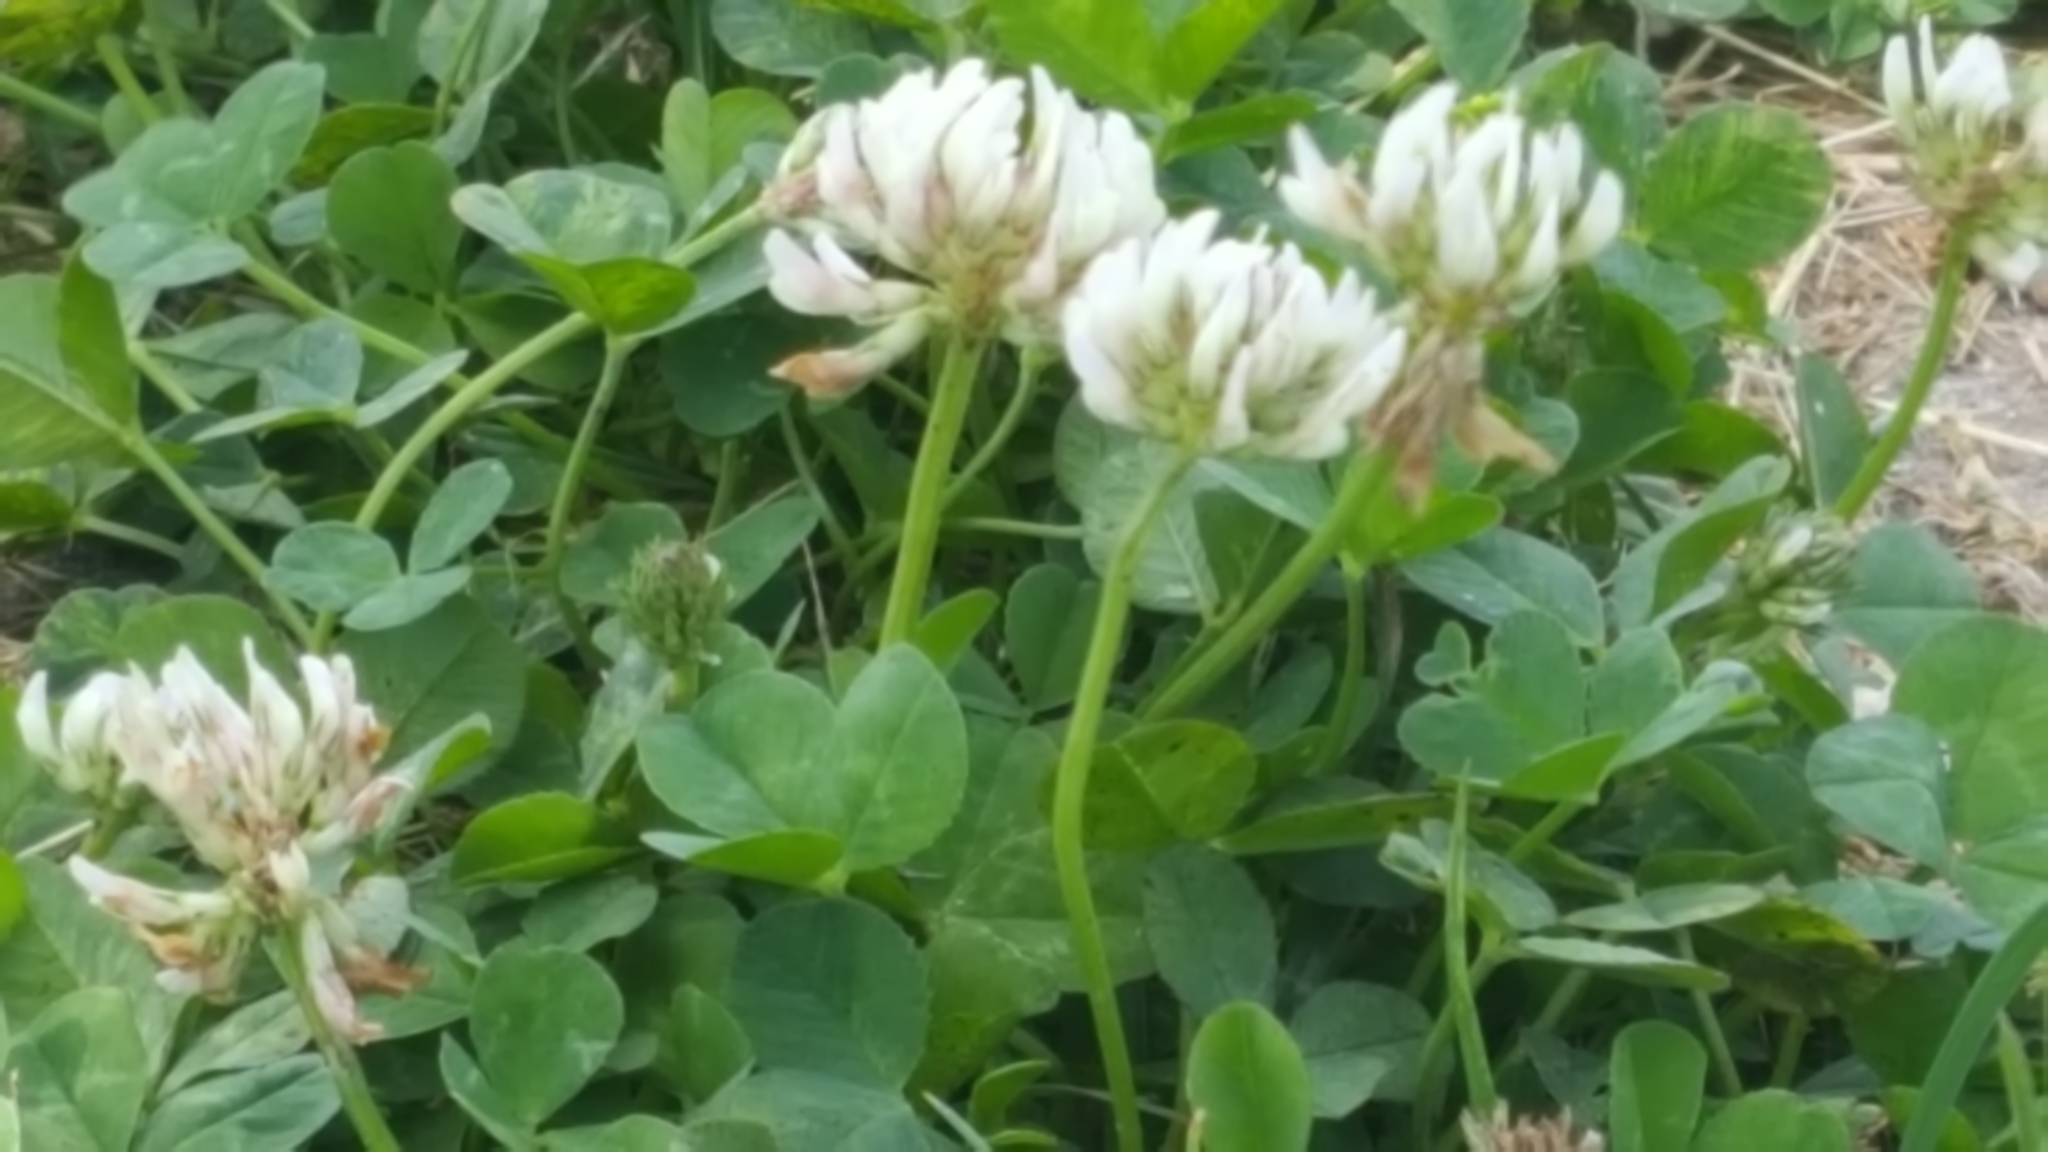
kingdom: Plantae
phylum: Tracheophyta
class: Magnoliopsida
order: Fabales
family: Fabaceae
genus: Trifolium
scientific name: Trifolium repens
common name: White clover
